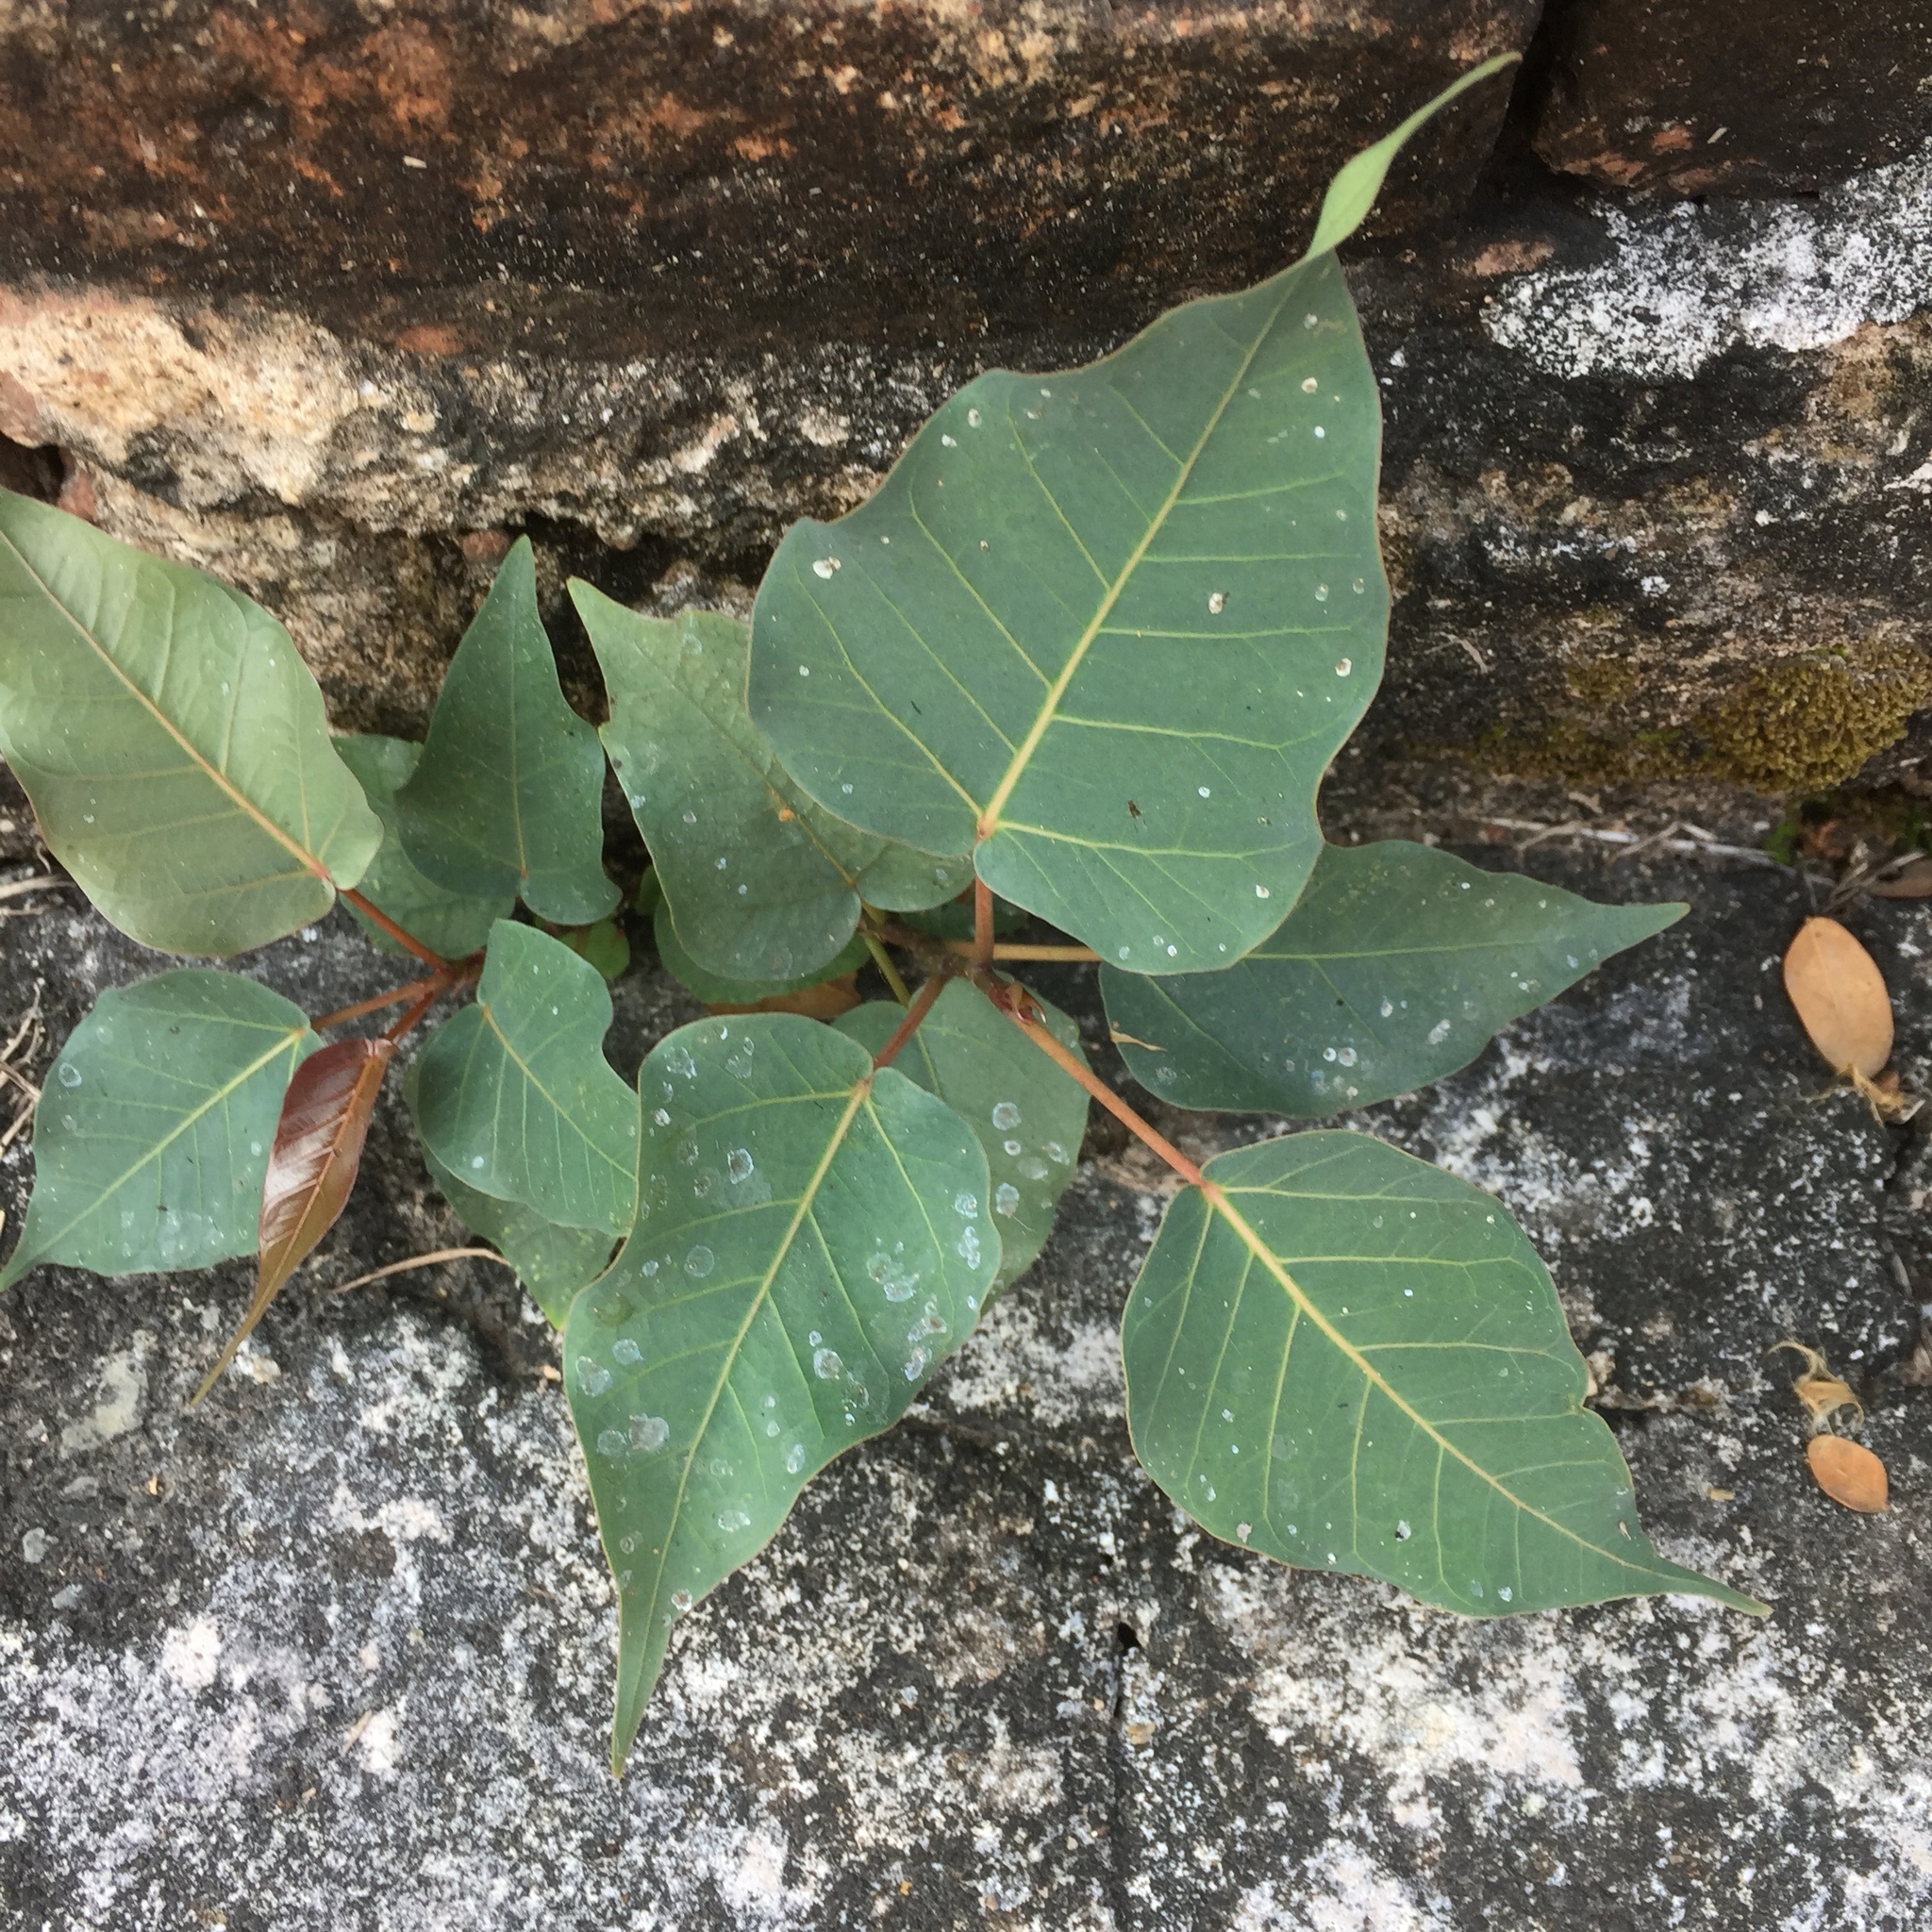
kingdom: Plantae
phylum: Tracheophyta
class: Magnoliopsida
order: Rosales
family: Moraceae
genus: Ficus
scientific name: Ficus religiosa
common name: Bodhi tree
